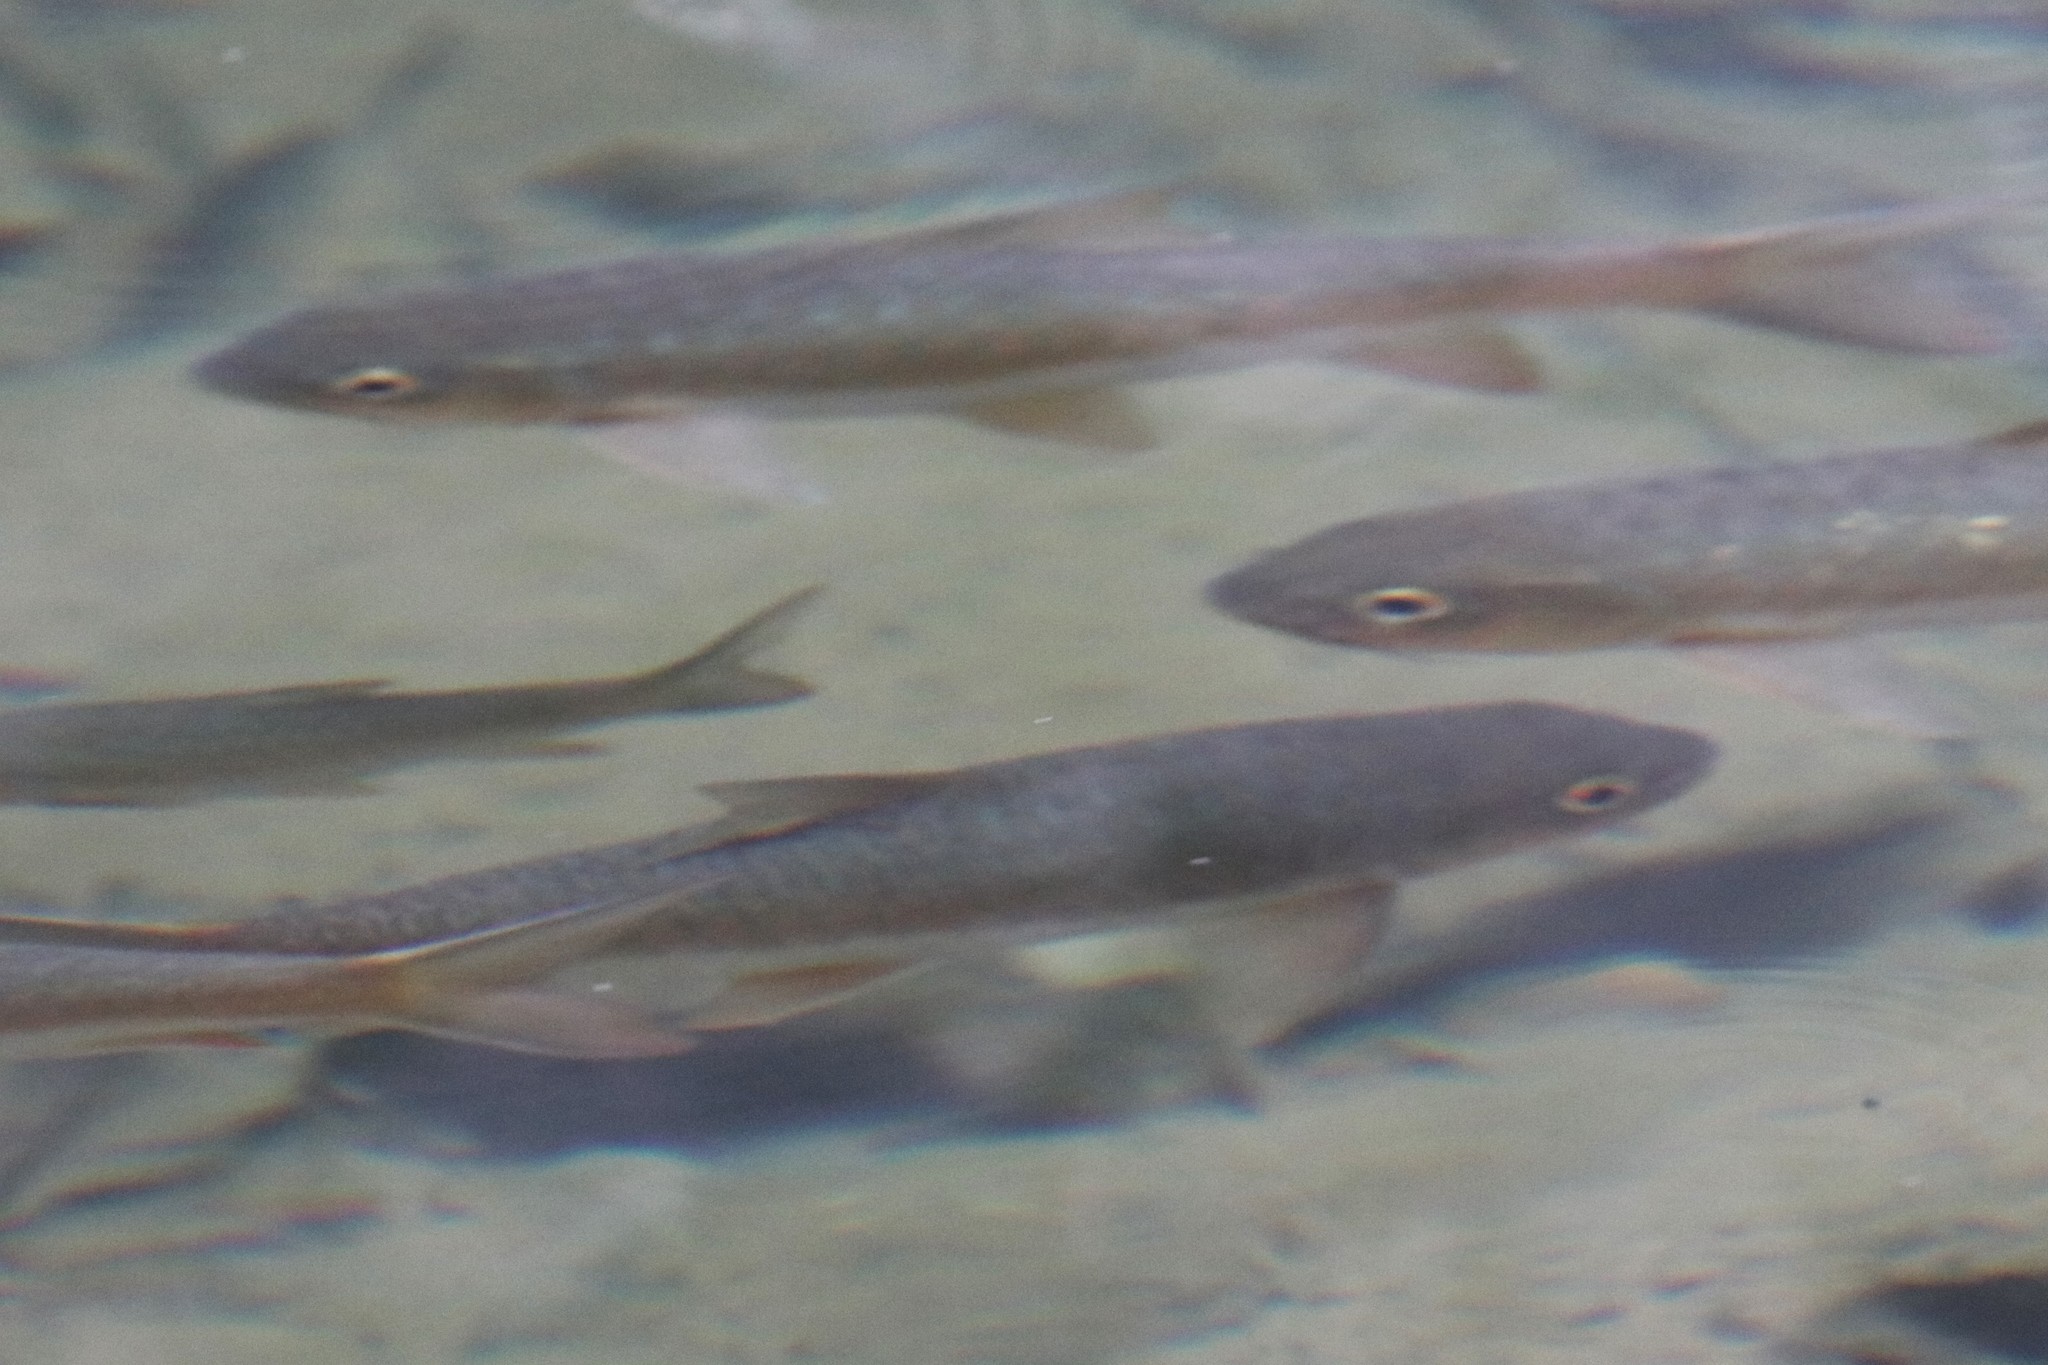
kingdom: Animalia
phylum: Chordata
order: Cypriniformes
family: Cyprinidae
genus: Neolissochilus
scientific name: Neolissochilus soroides
